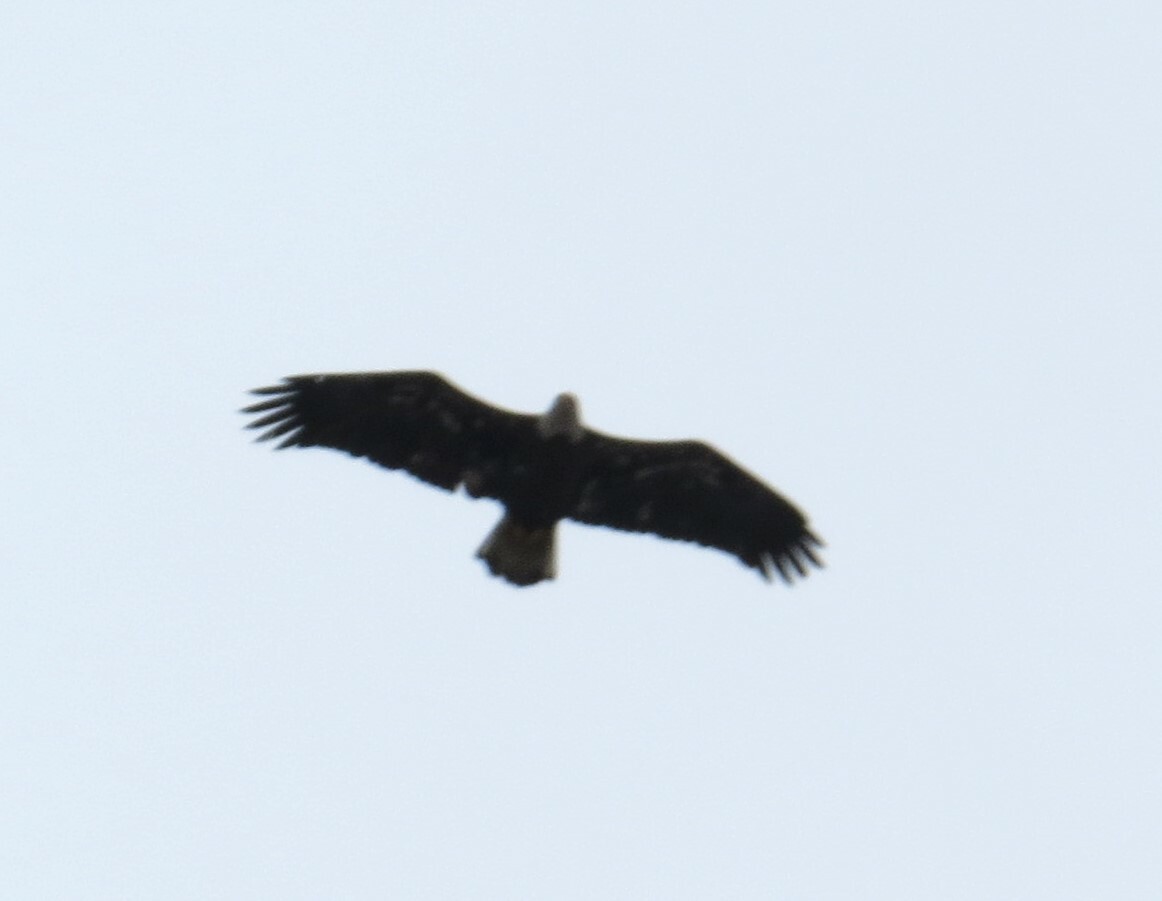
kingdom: Animalia
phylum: Chordata
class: Aves
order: Accipitriformes
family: Accipitridae
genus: Haliaeetus
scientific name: Haliaeetus leucocephalus
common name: Bald eagle
